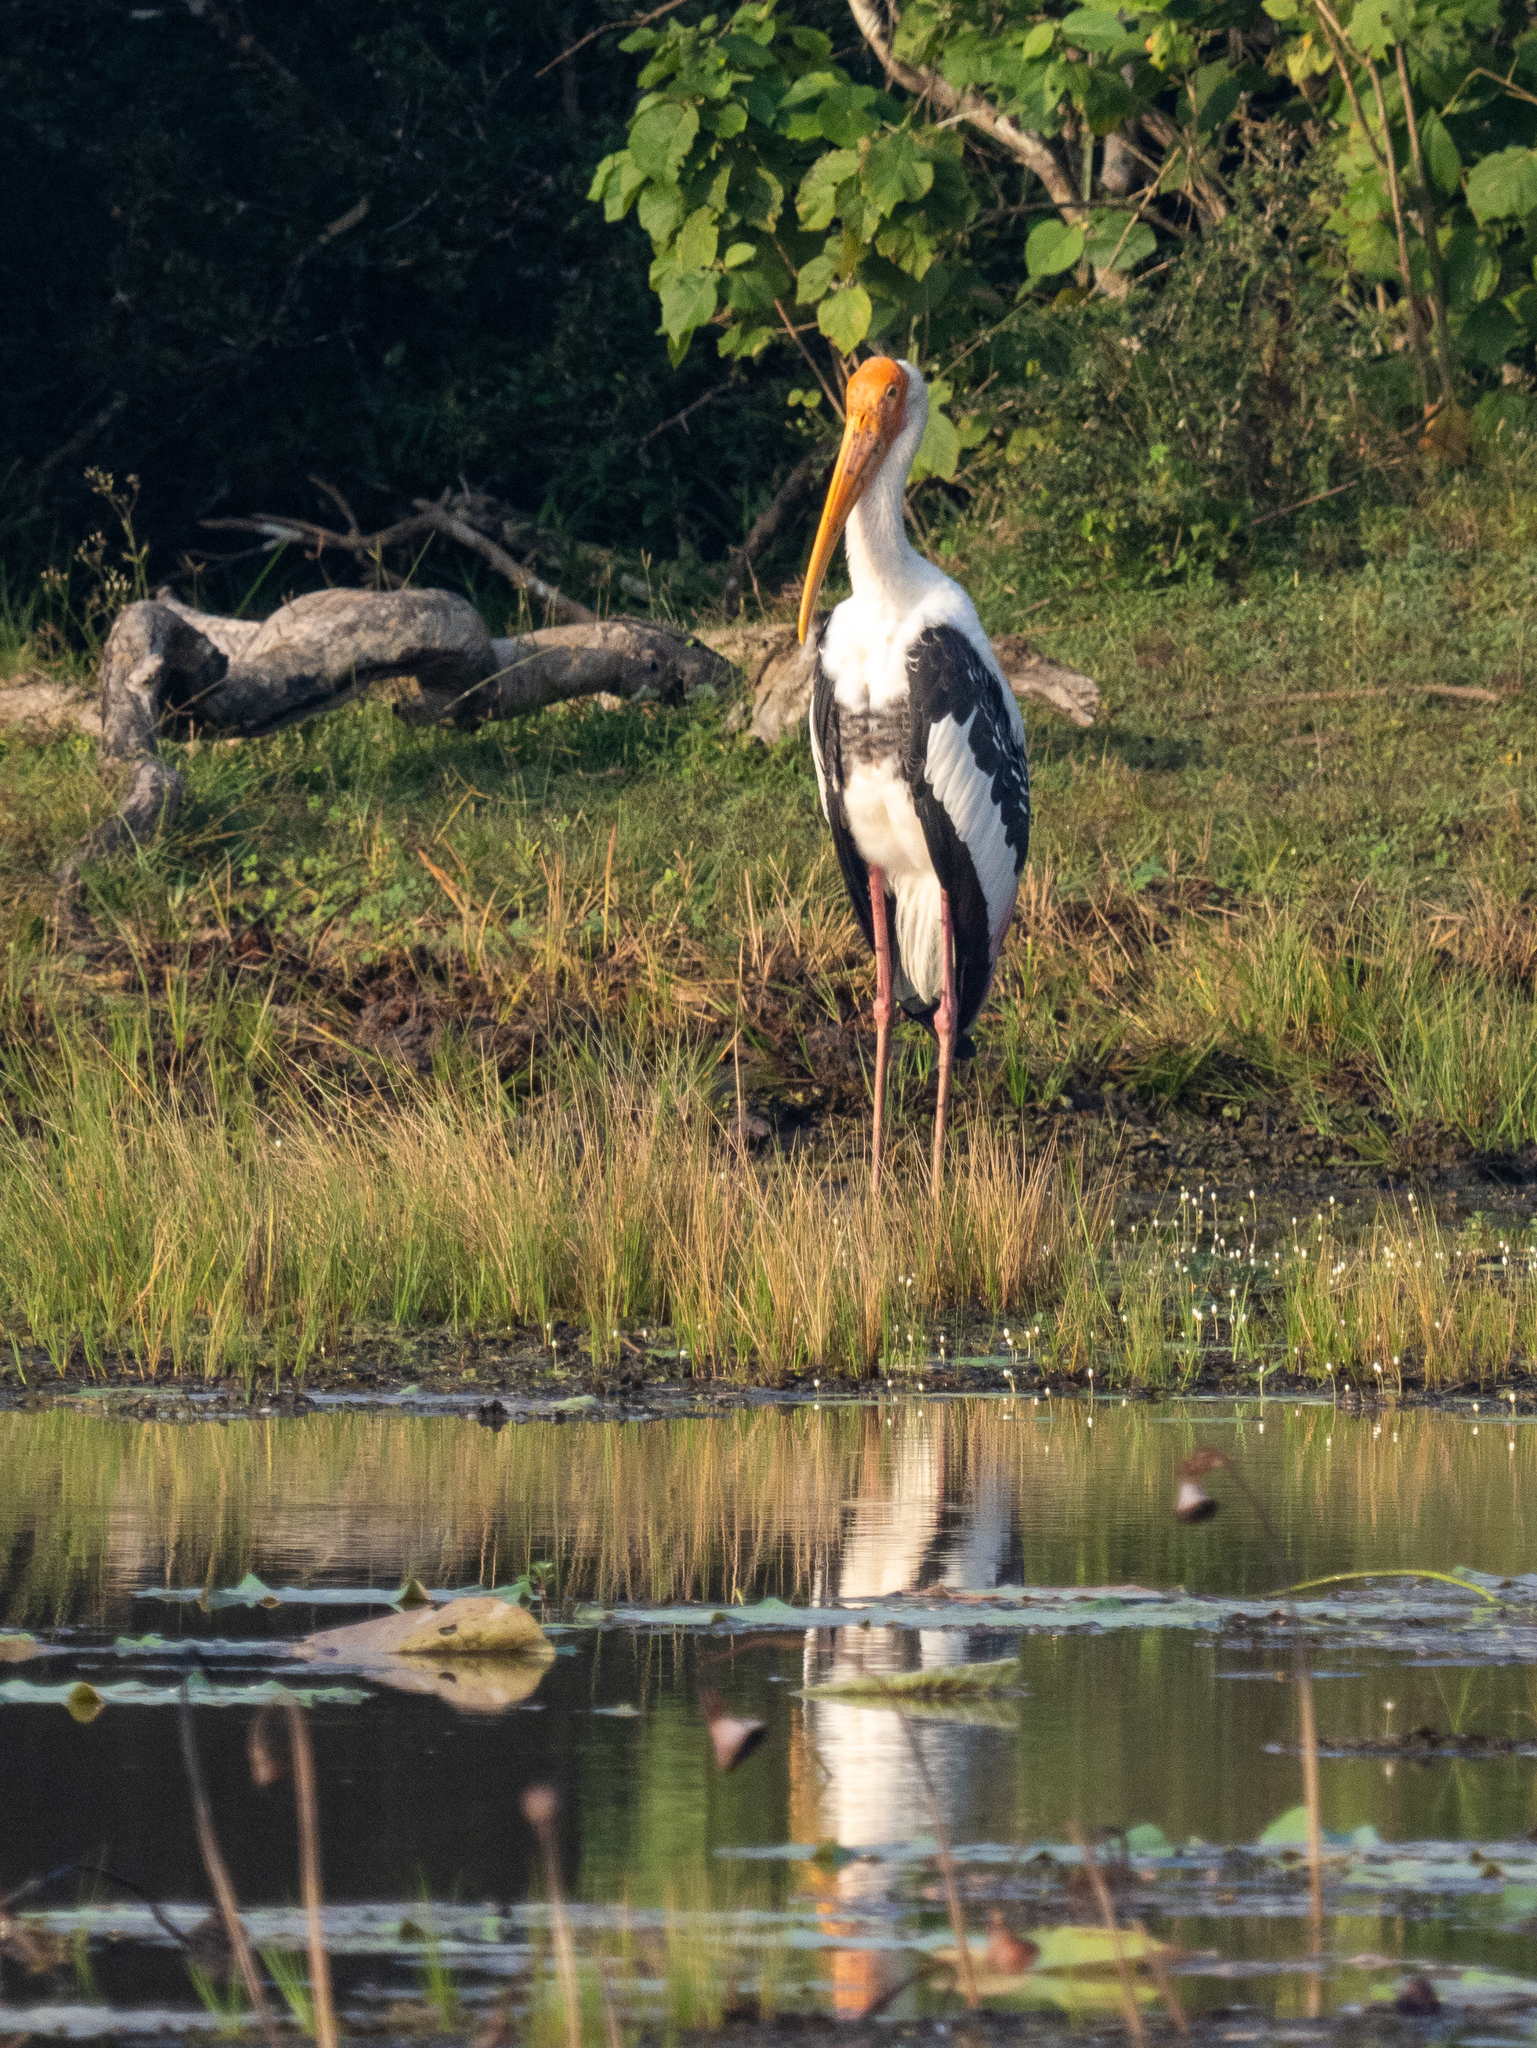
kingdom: Animalia
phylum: Chordata
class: Aves
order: Ciconiiformes
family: Ciconiidae
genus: Mycteria
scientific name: Mycteria leucocephala
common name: Painted stork
